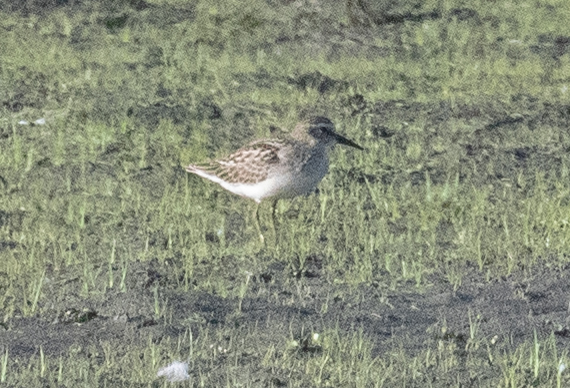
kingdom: Animalia
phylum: Chordata
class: Aves
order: Charadriiformes
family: Scolopacidae
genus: Calidris
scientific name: Calidris minutilla
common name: Least sandpiper
